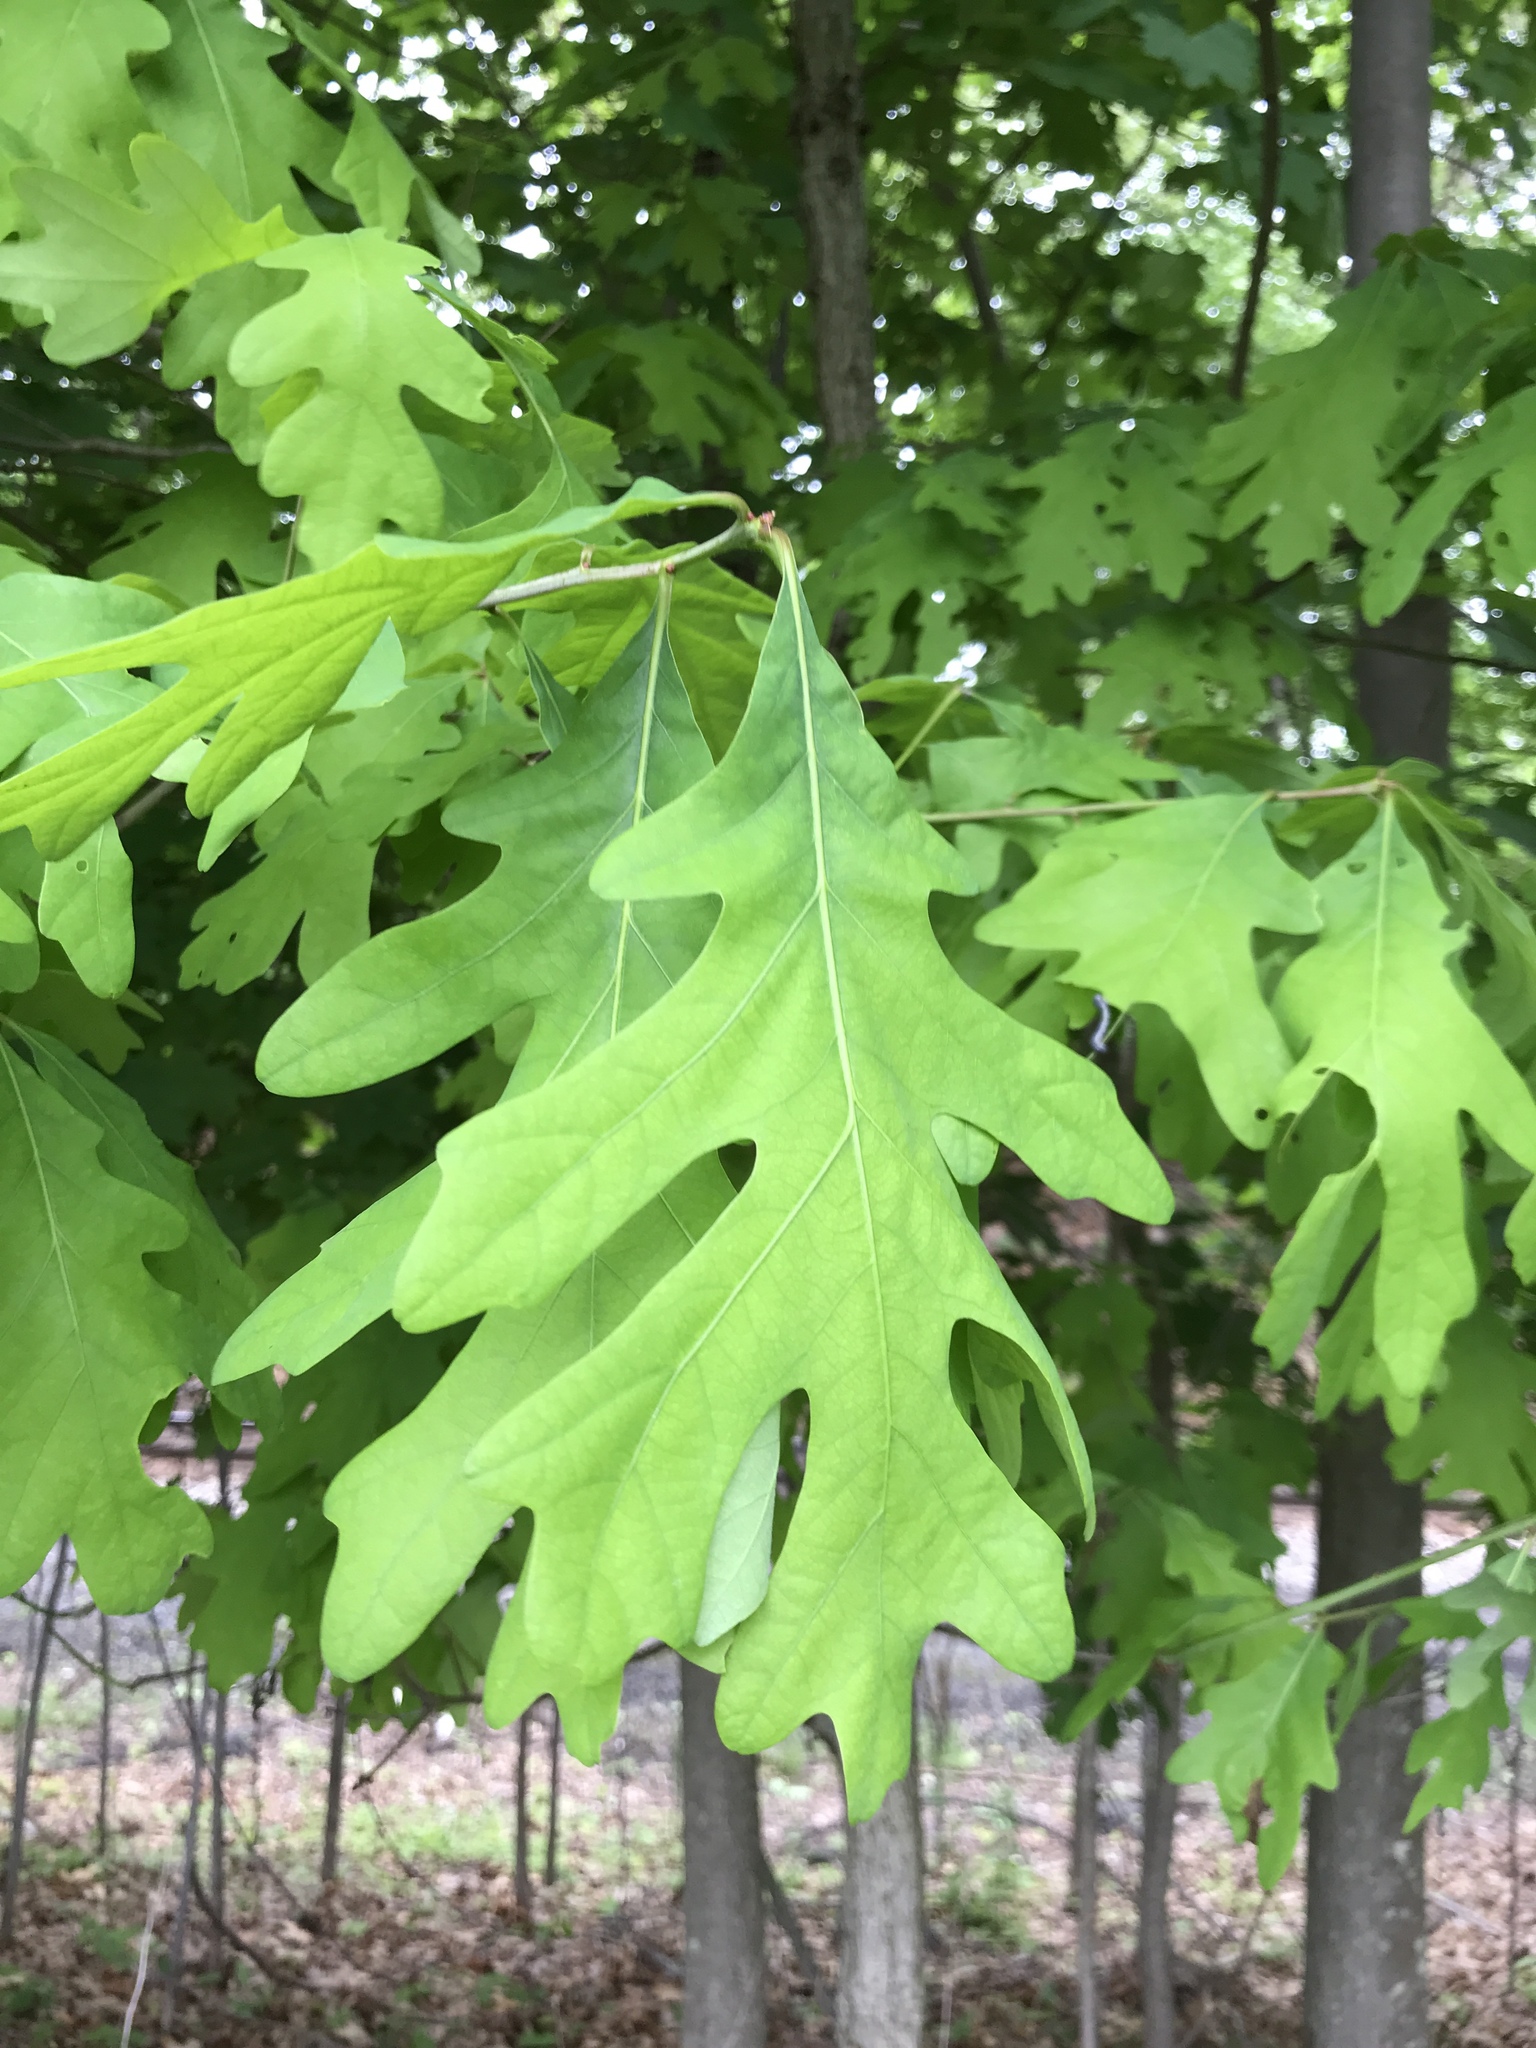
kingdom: Plantae
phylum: Tracheophyta
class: Magnoliopsida
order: Fagales
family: Fagaceae
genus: Quercus
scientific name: Quercus alba
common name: White oak
